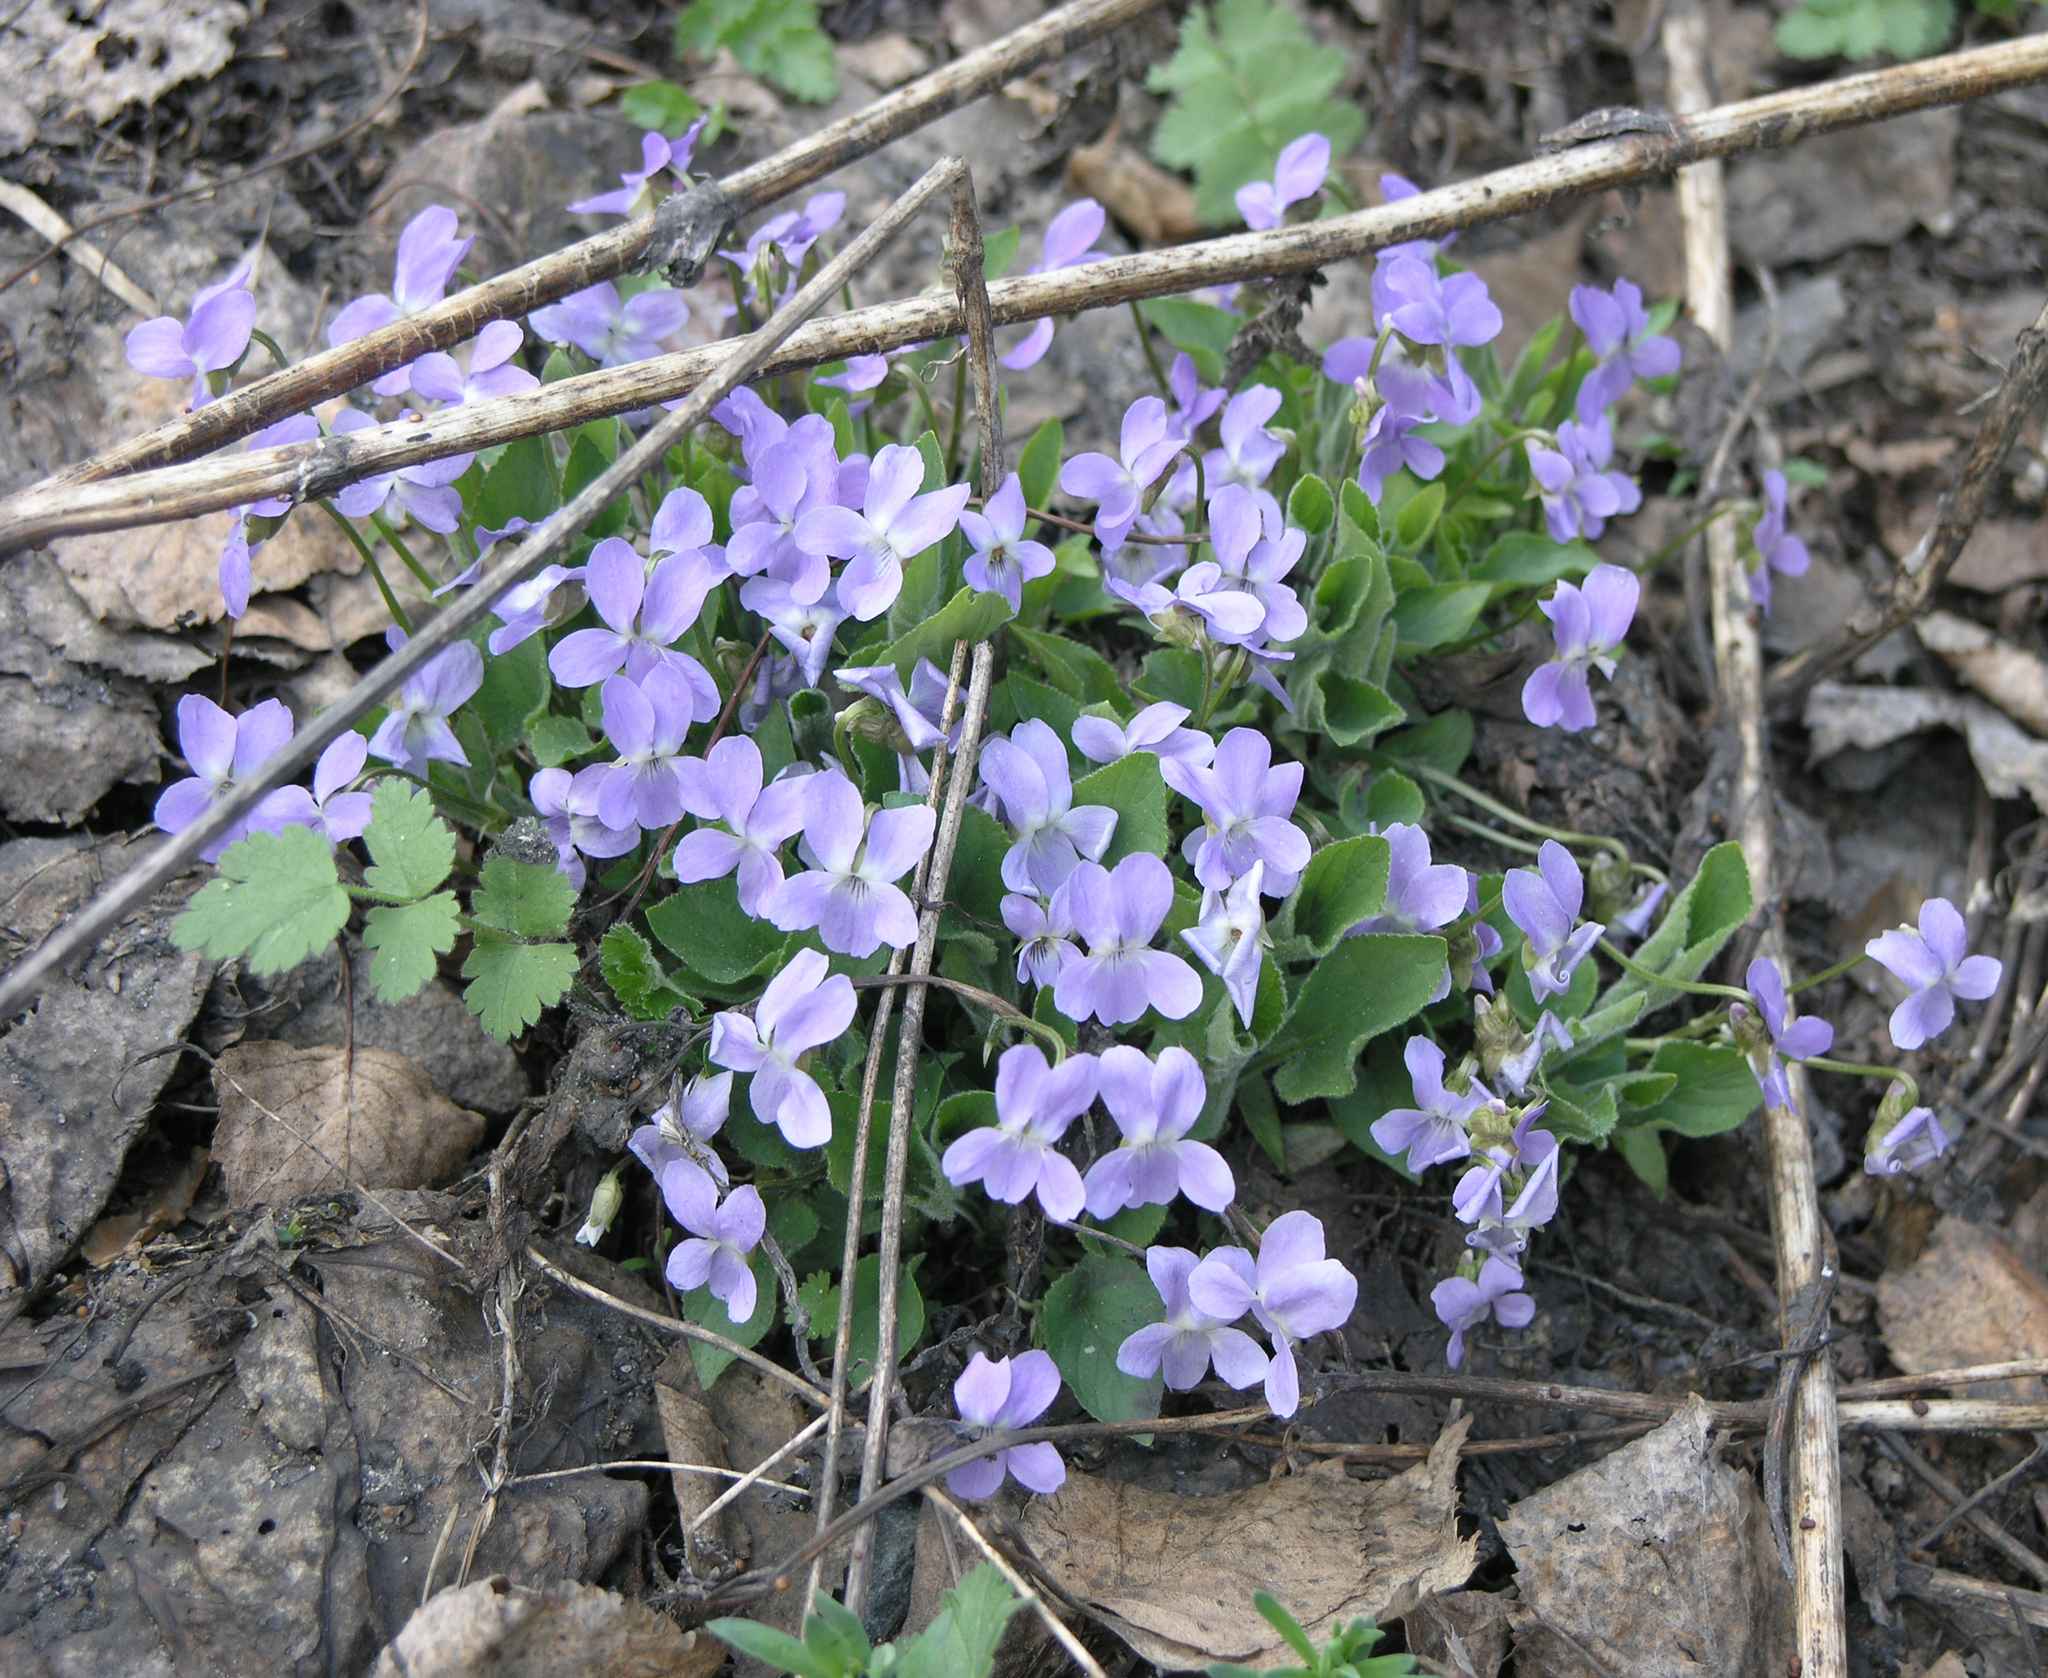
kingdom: Plantae
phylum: Tracheophyta
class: Magnoliopsida
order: Malpighiales
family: Violaceae
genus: Viola
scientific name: Viola hirta
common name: Hairy violet
